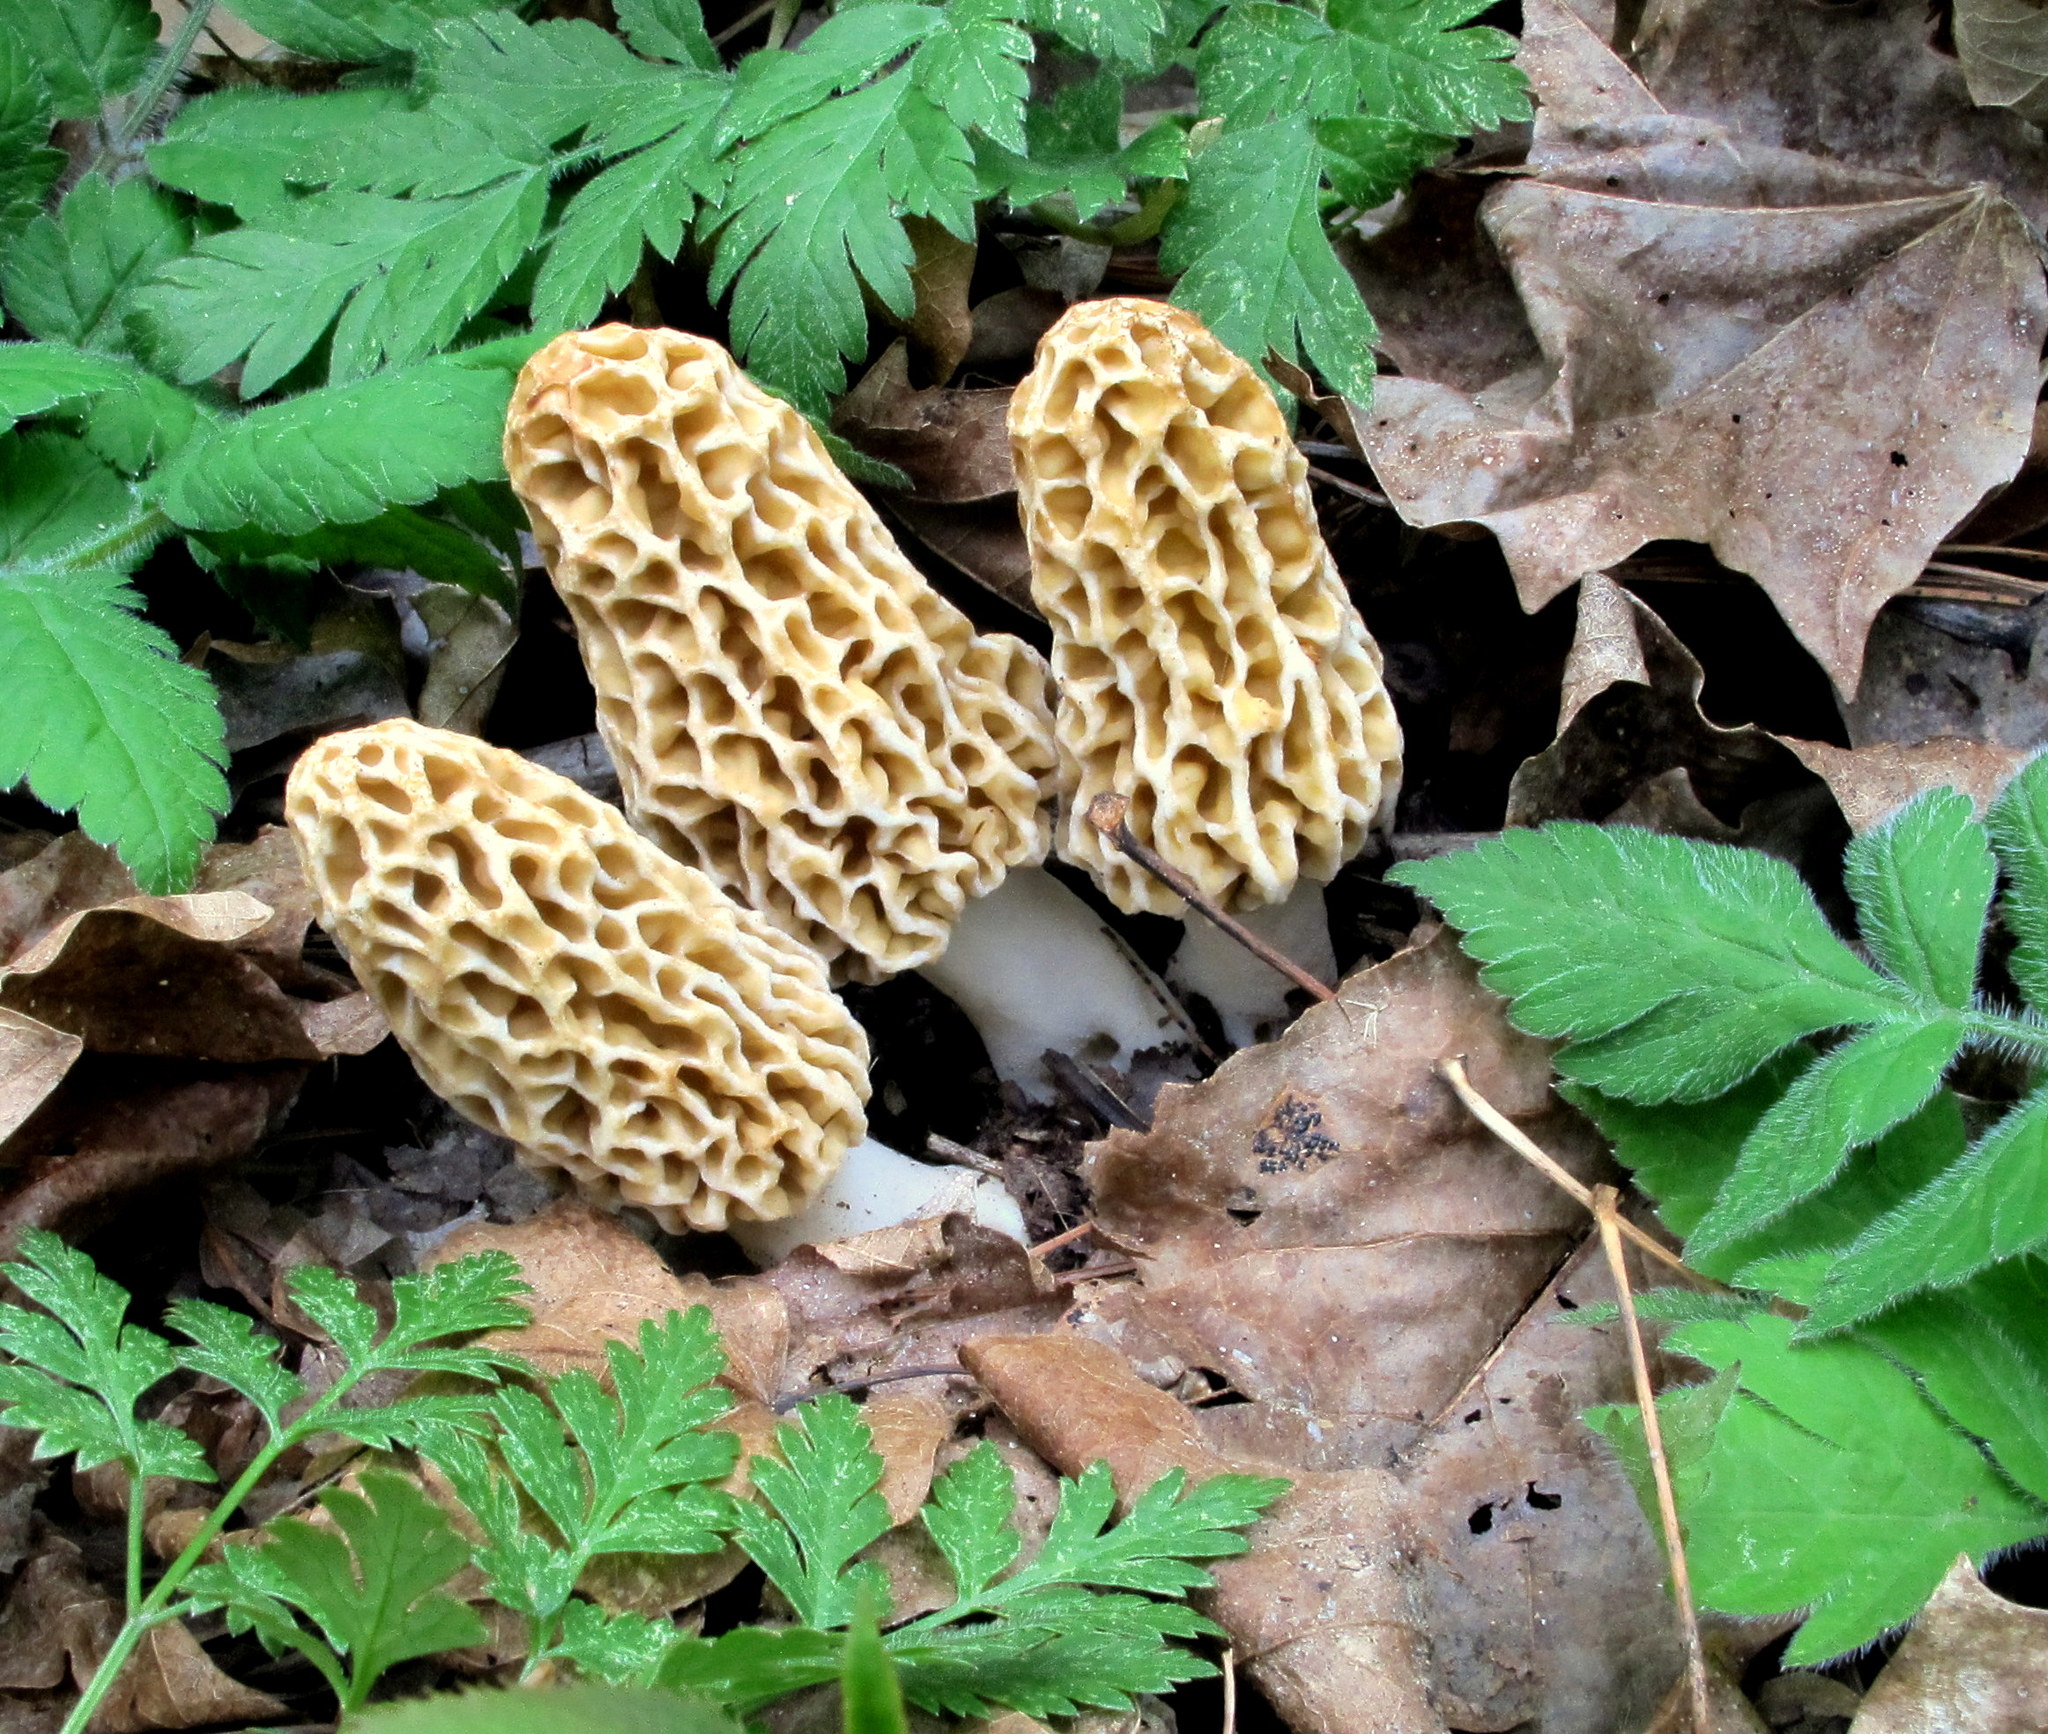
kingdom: Fungi
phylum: Ascomycota
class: Pezizomycetes
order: Pezizales
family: Morchellaceae
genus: Morchella
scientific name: Morchella americana
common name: White morel
